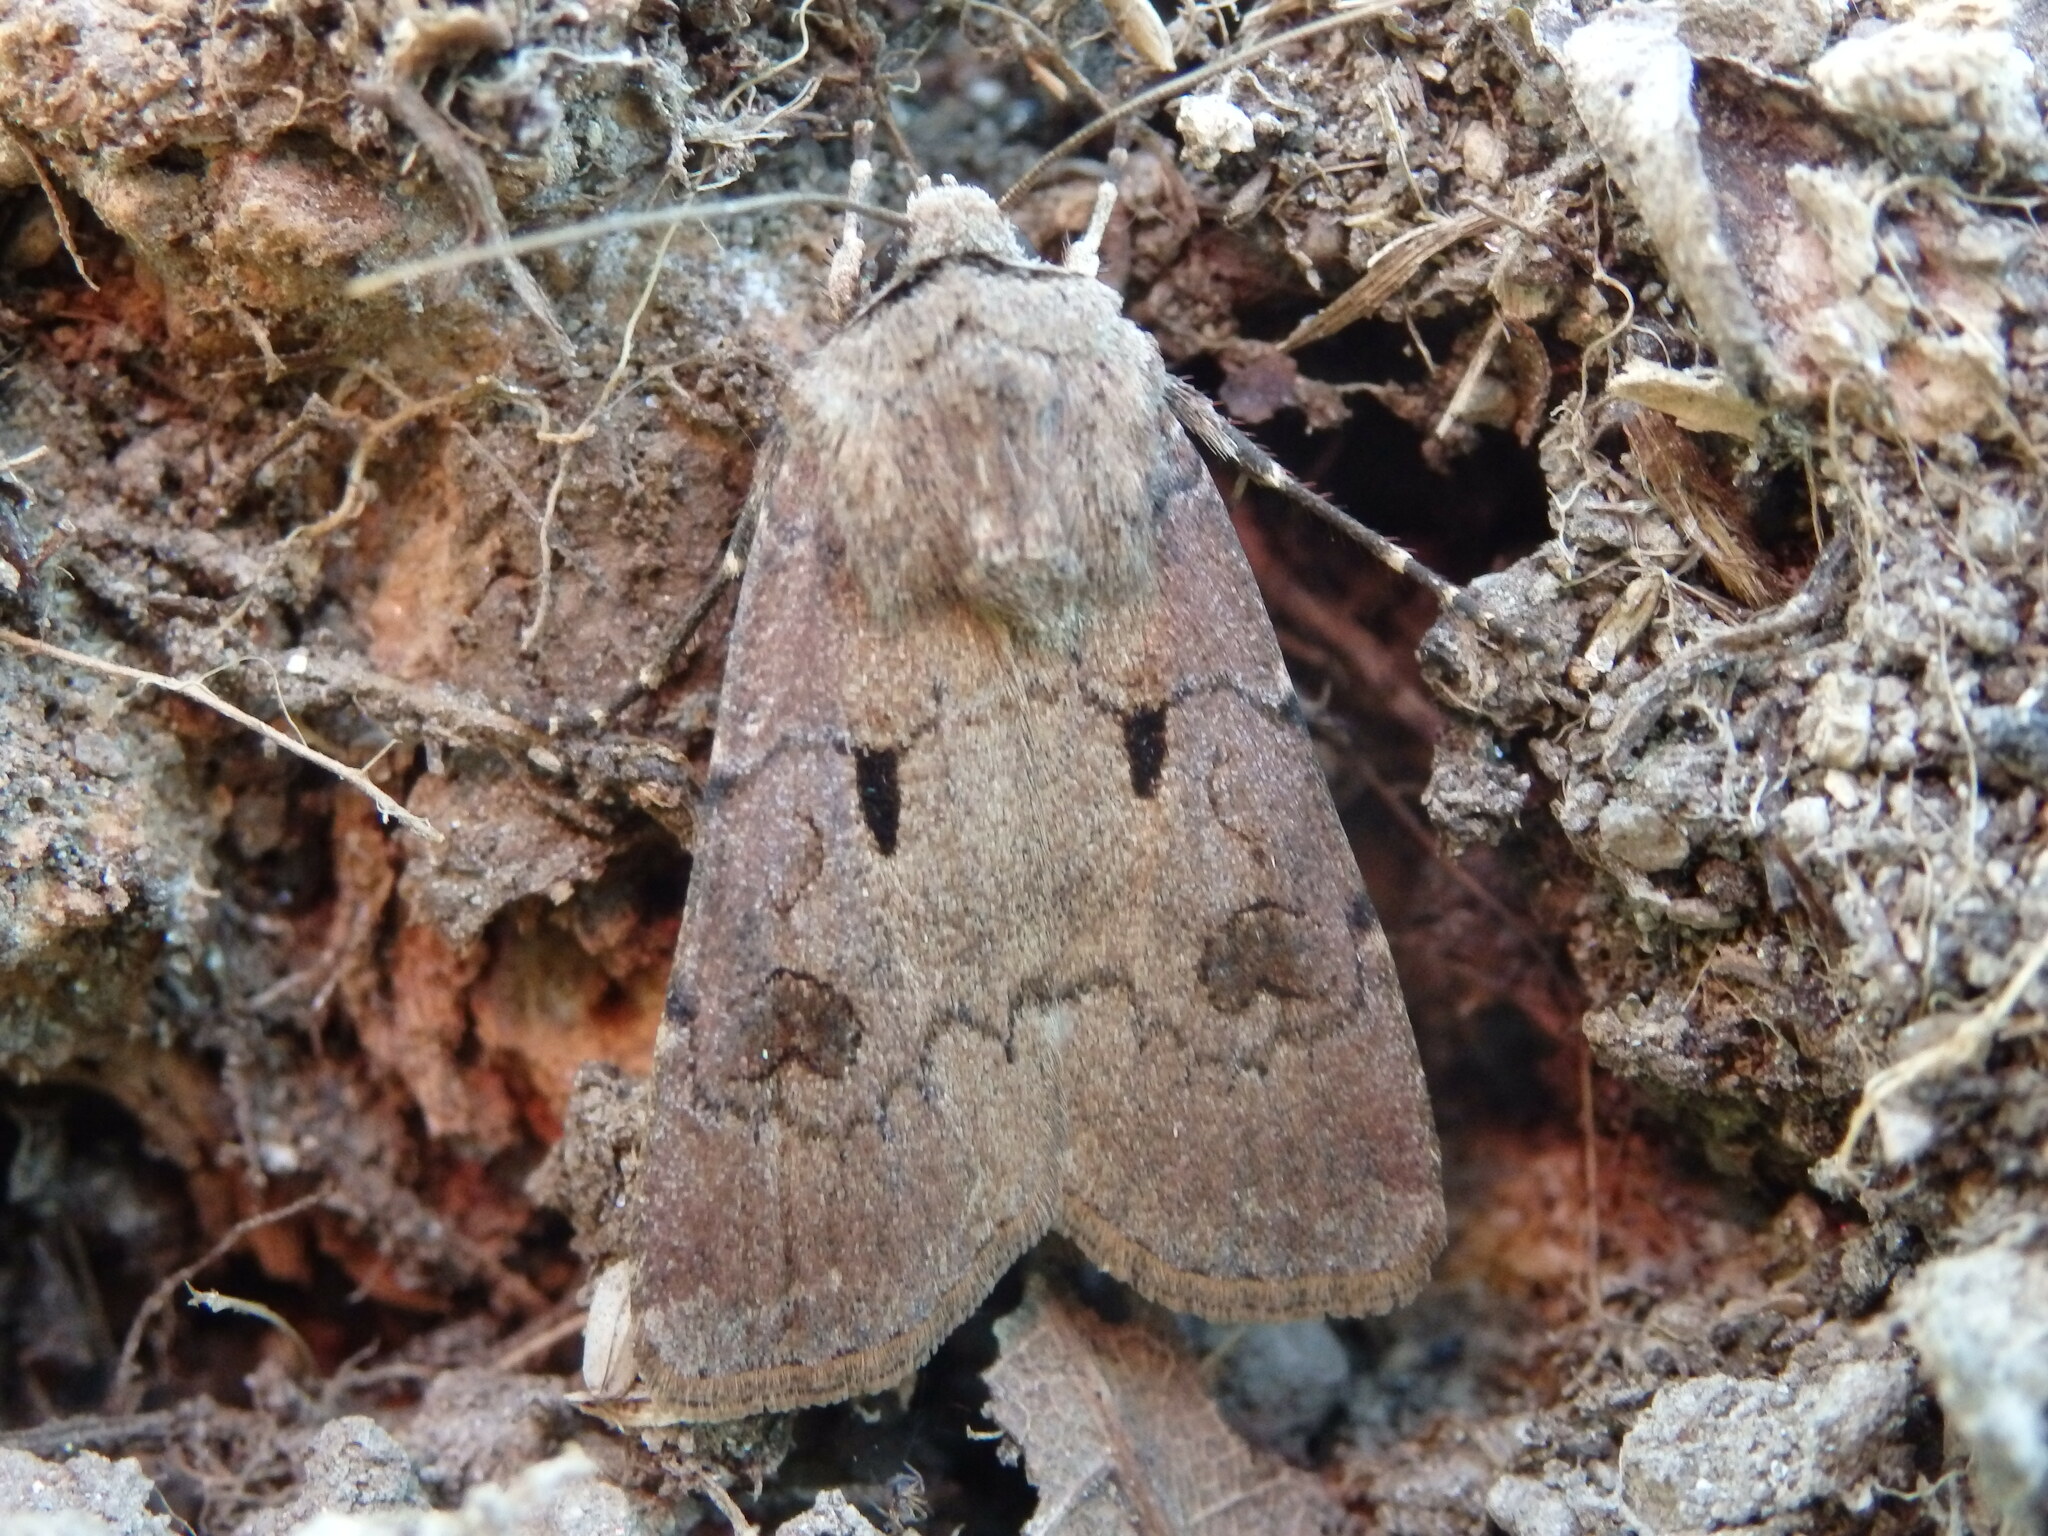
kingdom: Animalia
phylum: Arthropoda
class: Insecta
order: Lepidoptera
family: Noctuidae
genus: Agrotis
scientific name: Agrotis exclamationis
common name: Heart and dart
